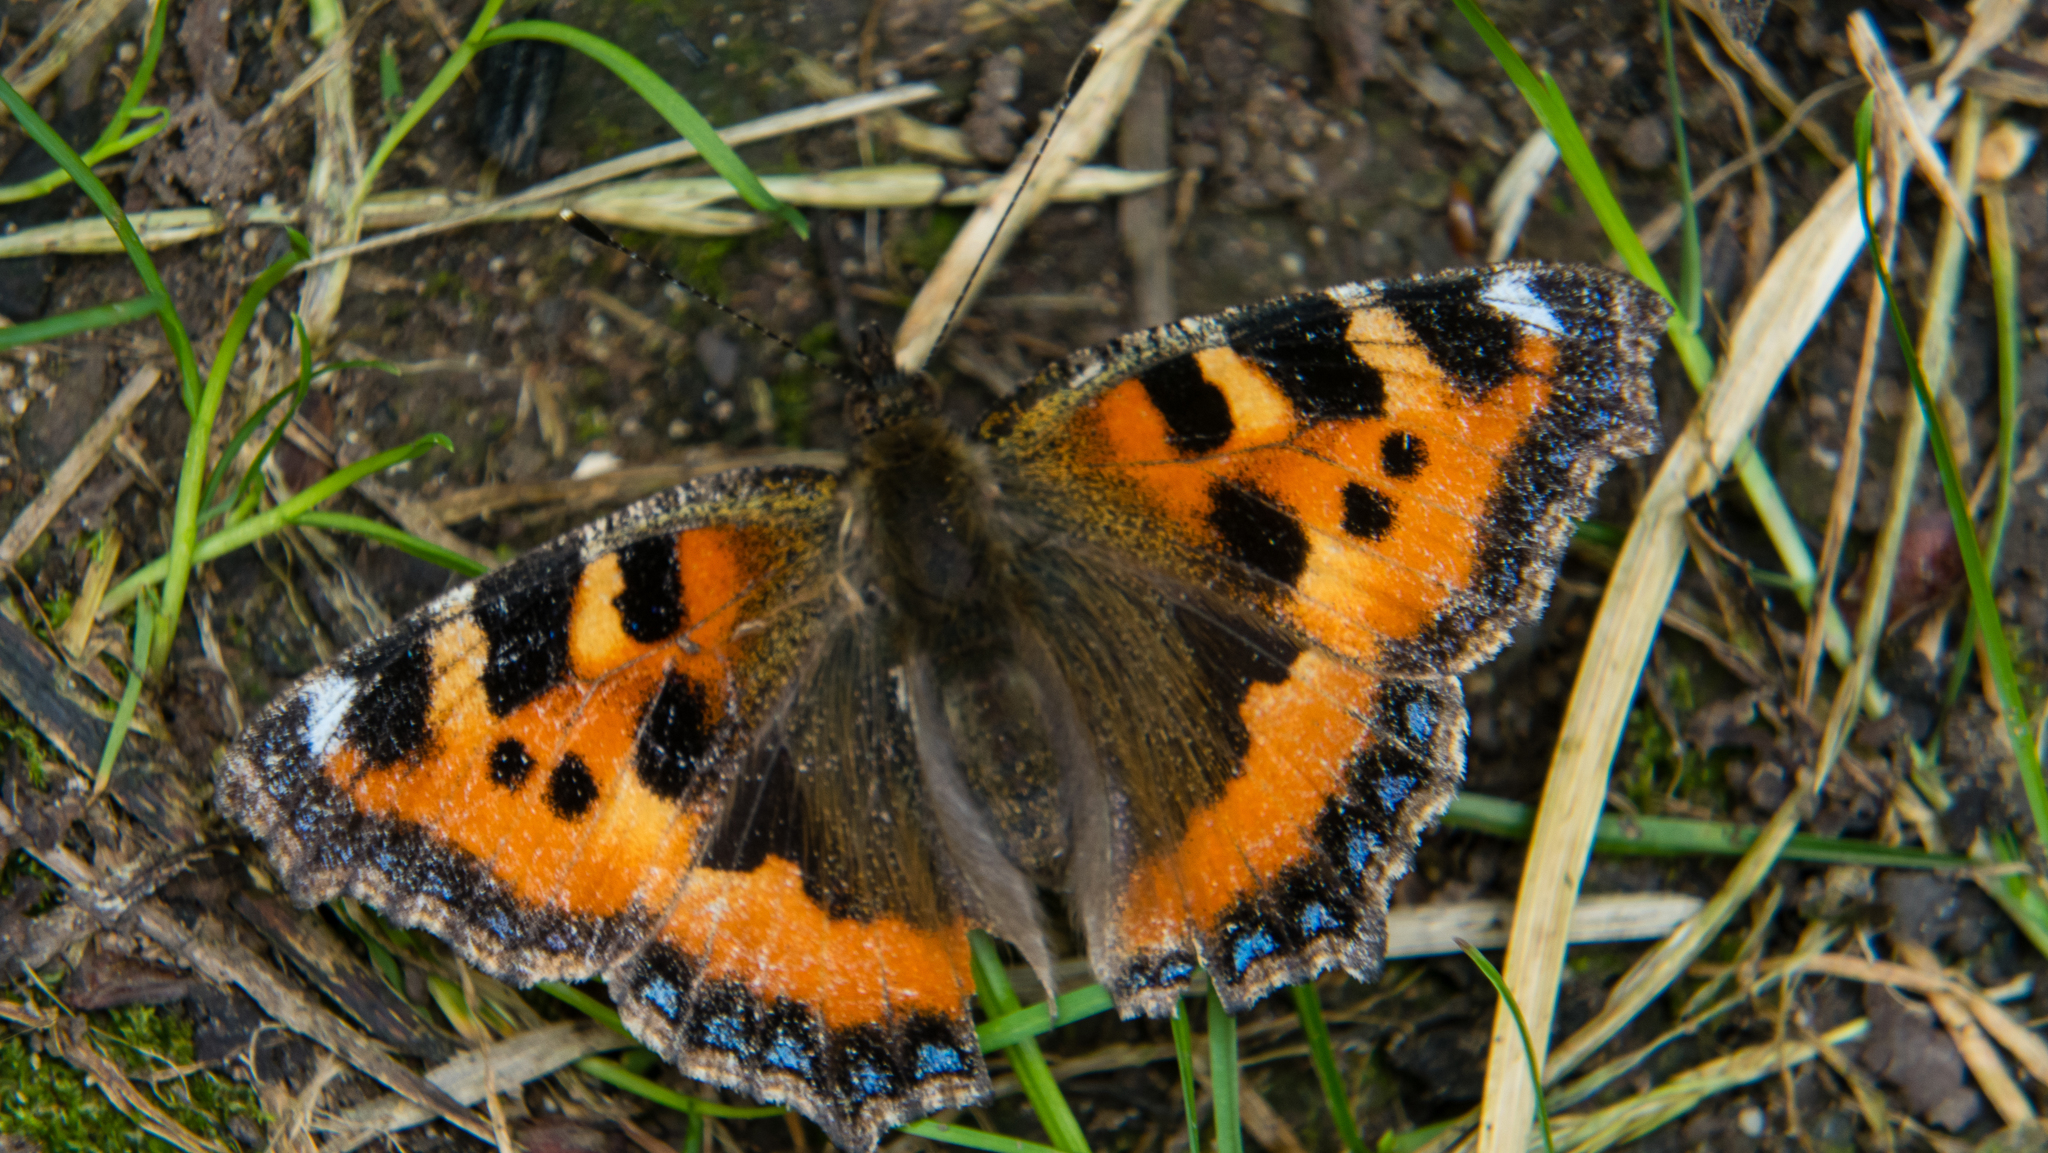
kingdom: Animalia
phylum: Arthropoda
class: Insecta
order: Lepidoptera
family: Nymphalidae
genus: Aglais
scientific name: Aglais urticae
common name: Small tortoiseshell
